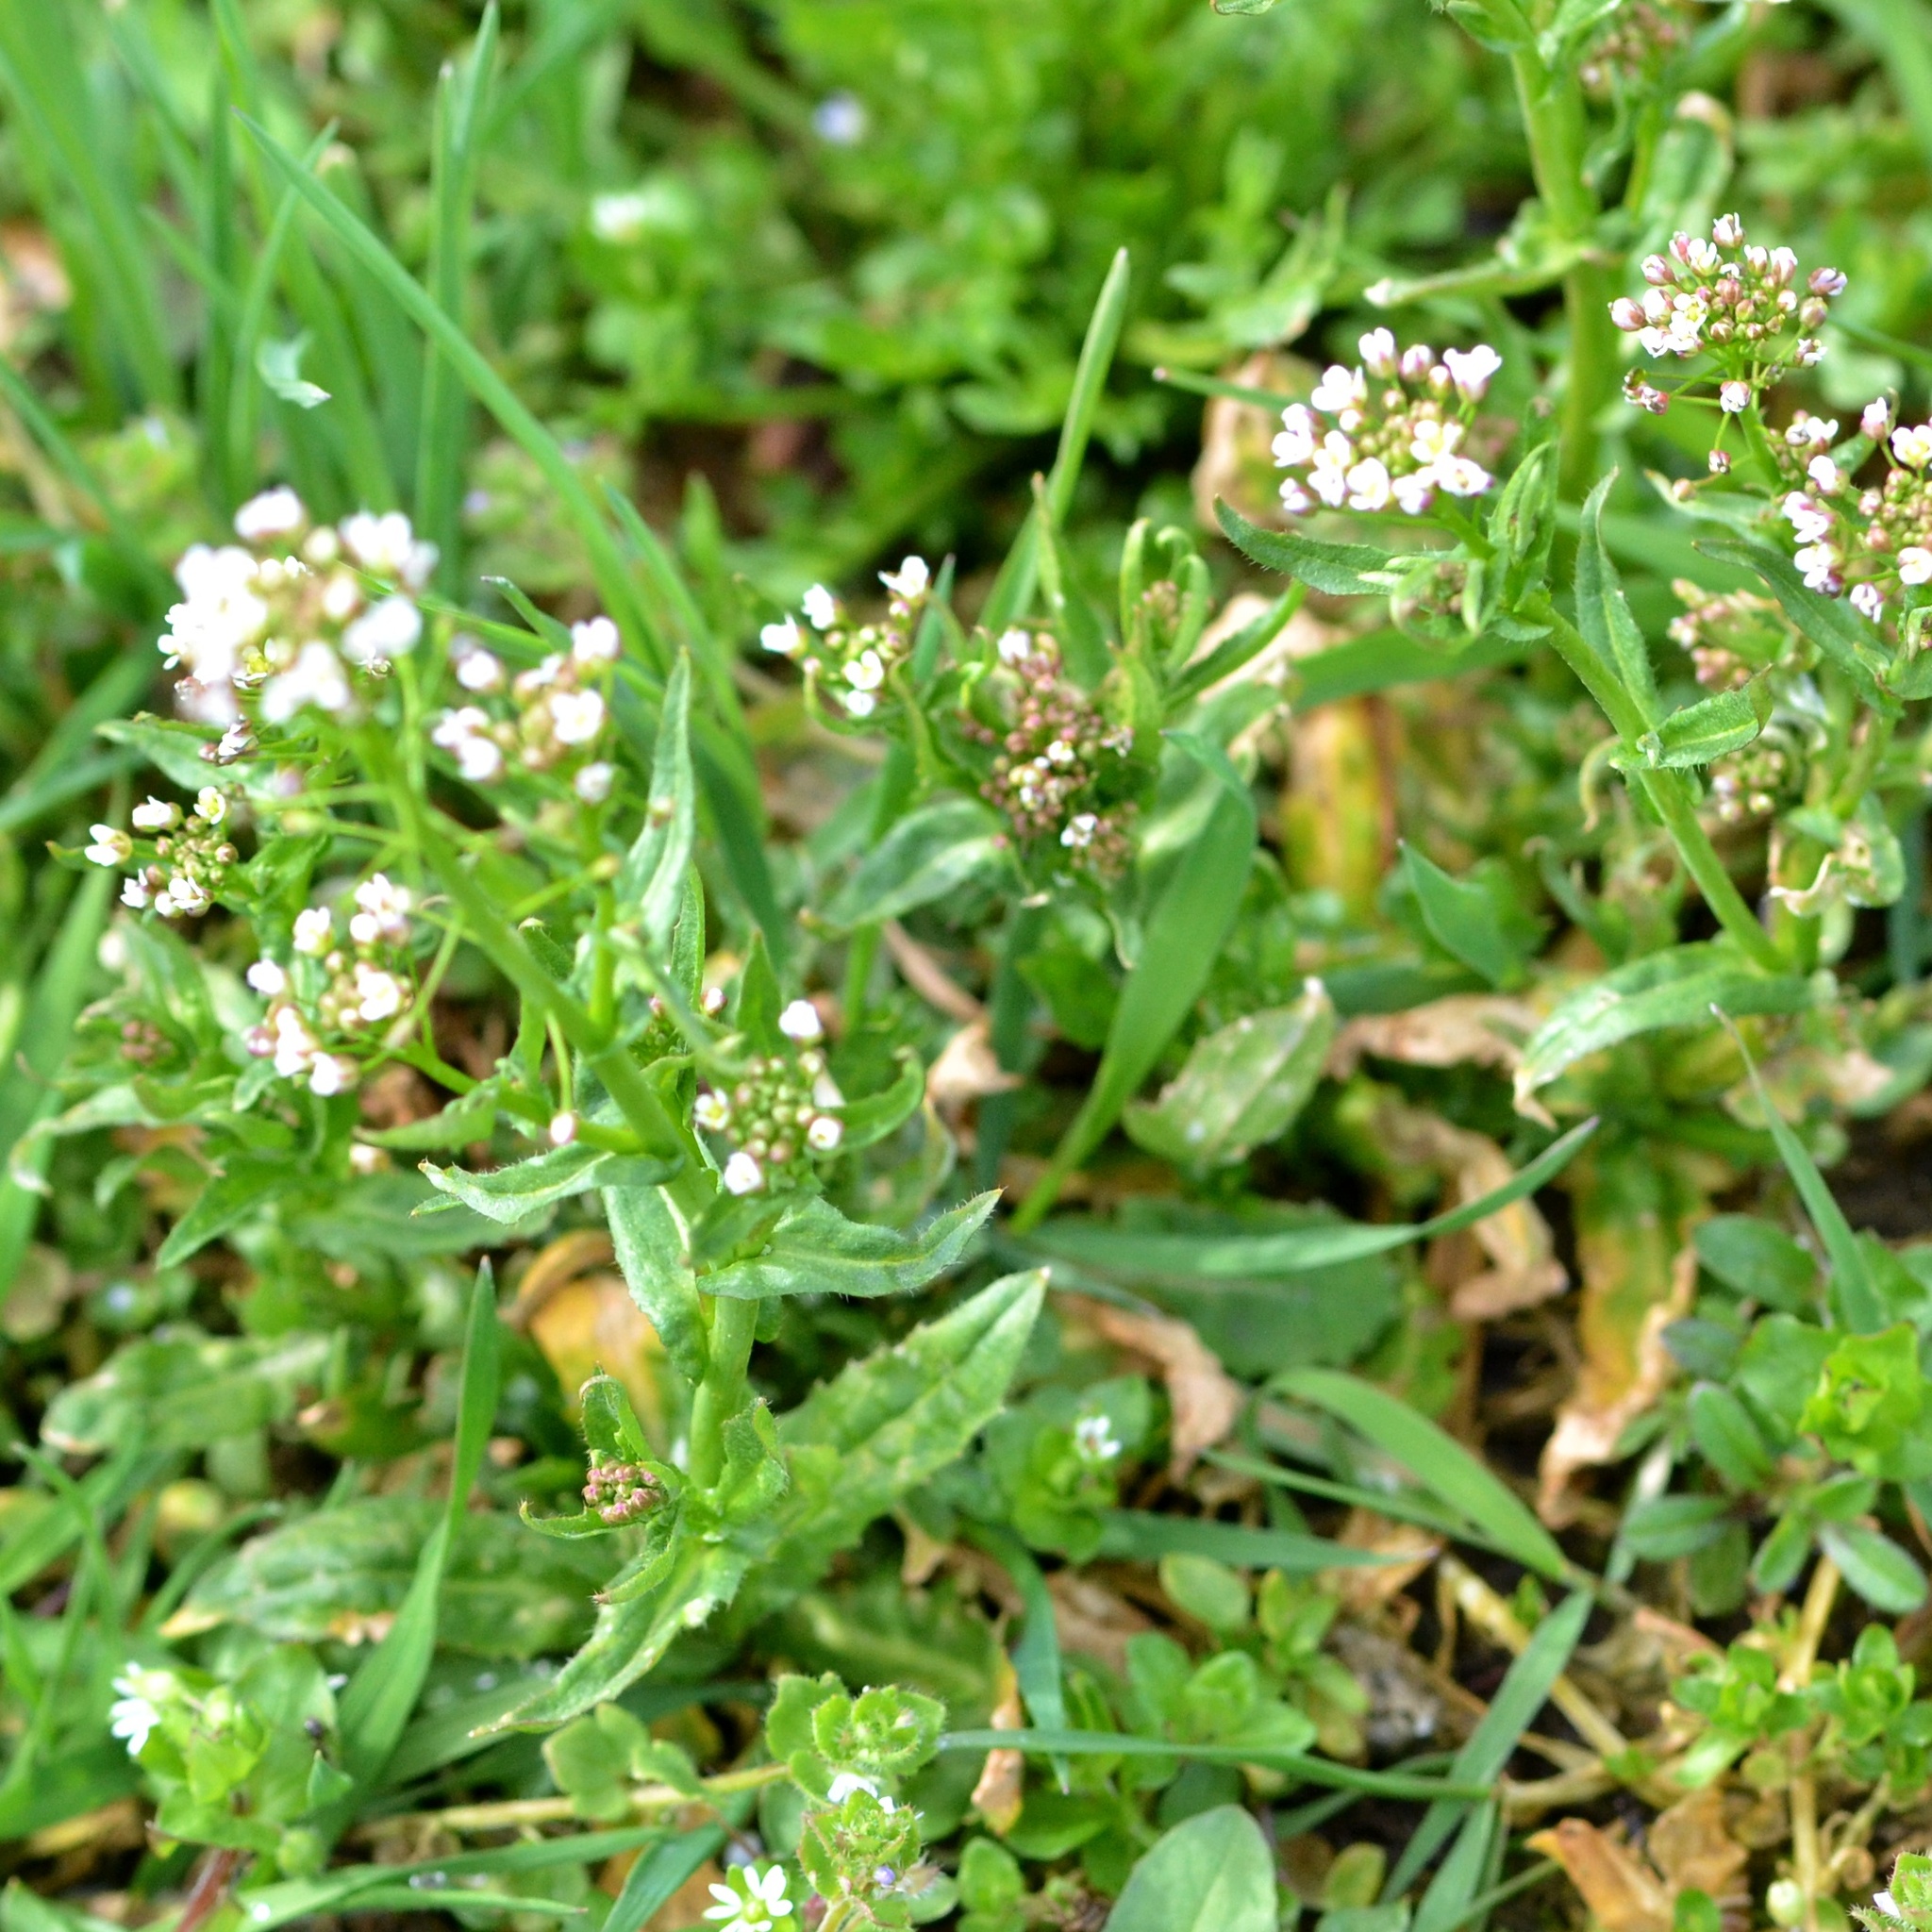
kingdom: Plantae
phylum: Tracheophyta
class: Magnoliopsida
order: Brassicales
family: Brassicaceae
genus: Capsella
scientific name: Capsella bursa-pastoris
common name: Shepherd's purse
